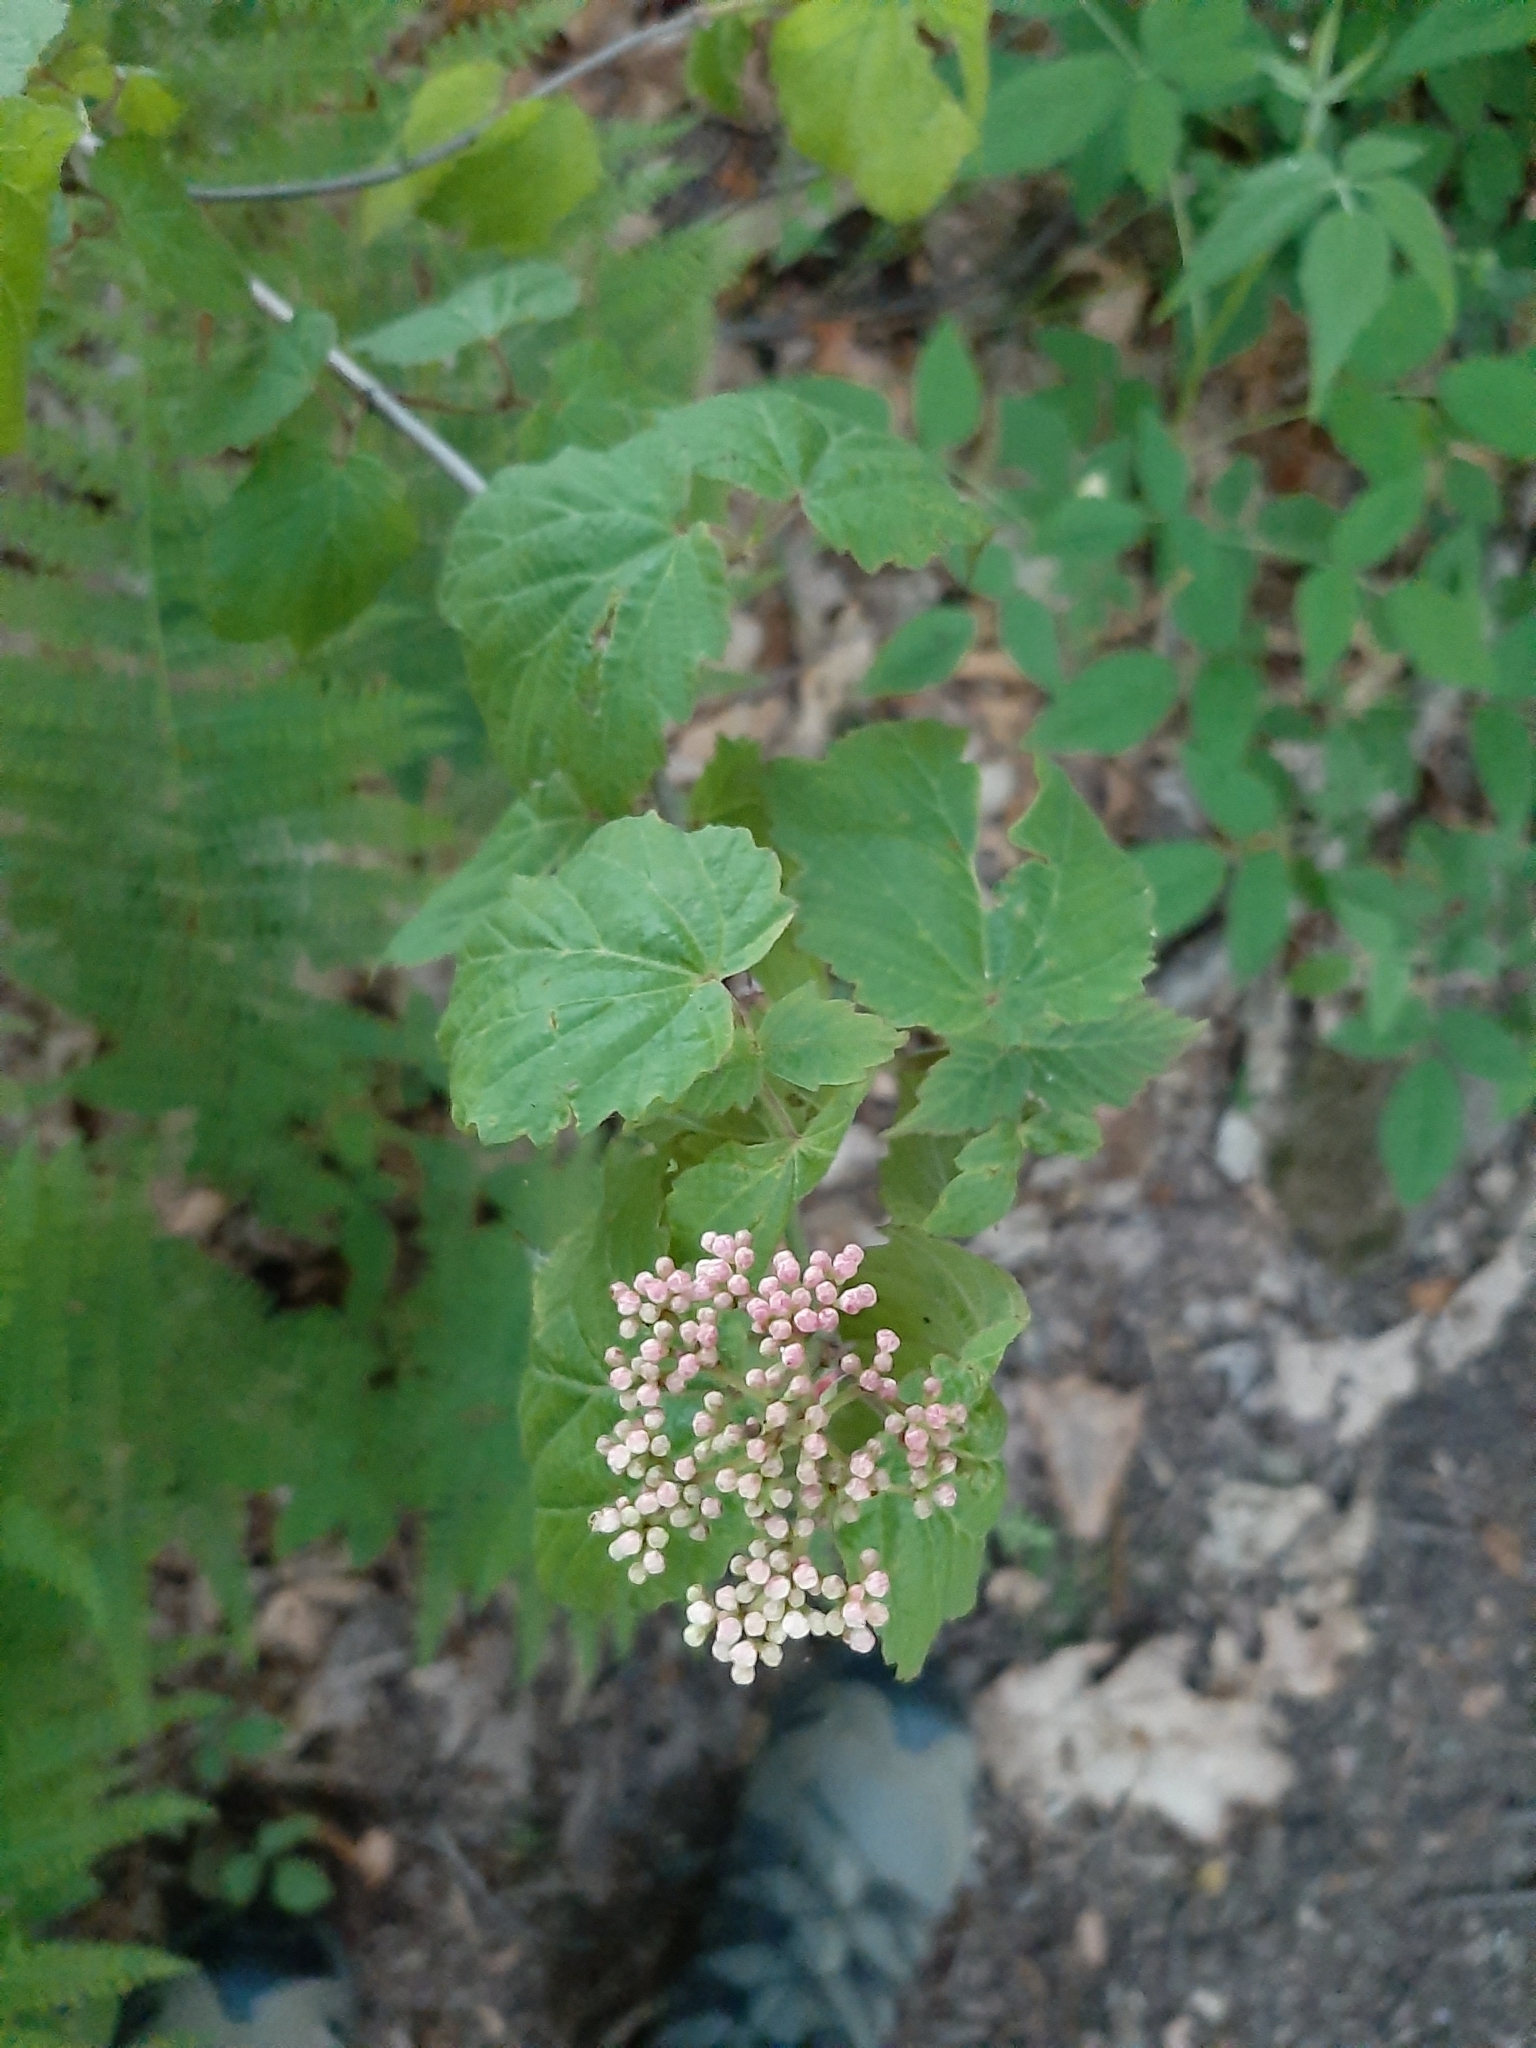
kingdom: Plantae
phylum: Tracheophyta
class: Magnoliopsida
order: Dipsacales
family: Viburnaceae
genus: Viburnum
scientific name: Viburnum acerifolium
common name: Dockmackie
